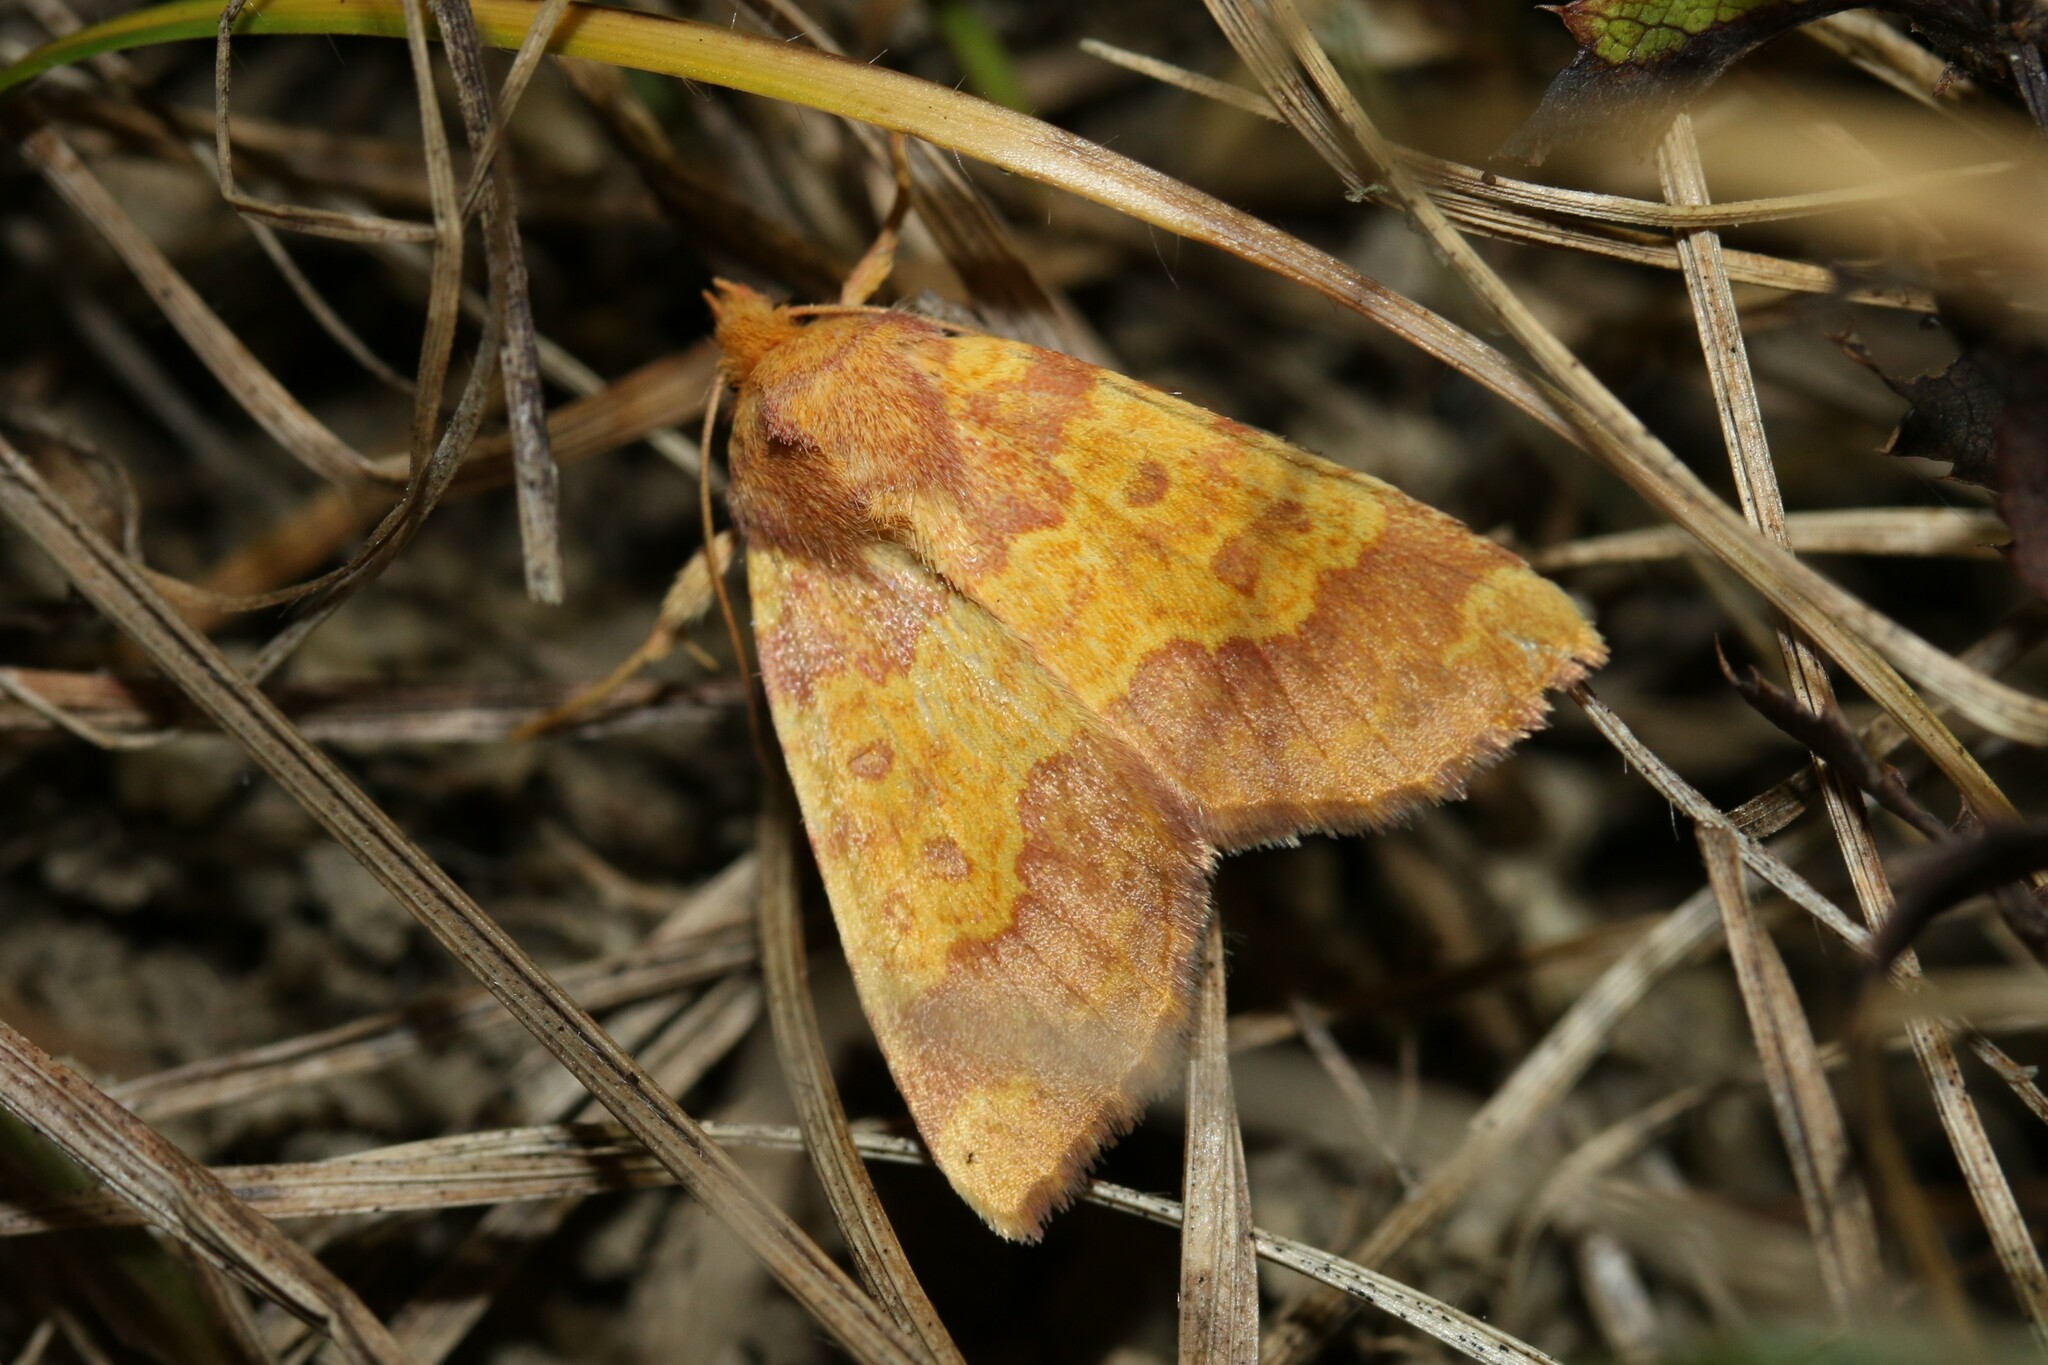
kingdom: Animalia
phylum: Arthropoda
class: Insecta
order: Lepidoptera
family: Noctuidae
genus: Tiliacea
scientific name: Tiliacea aurago
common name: Barred sallow
